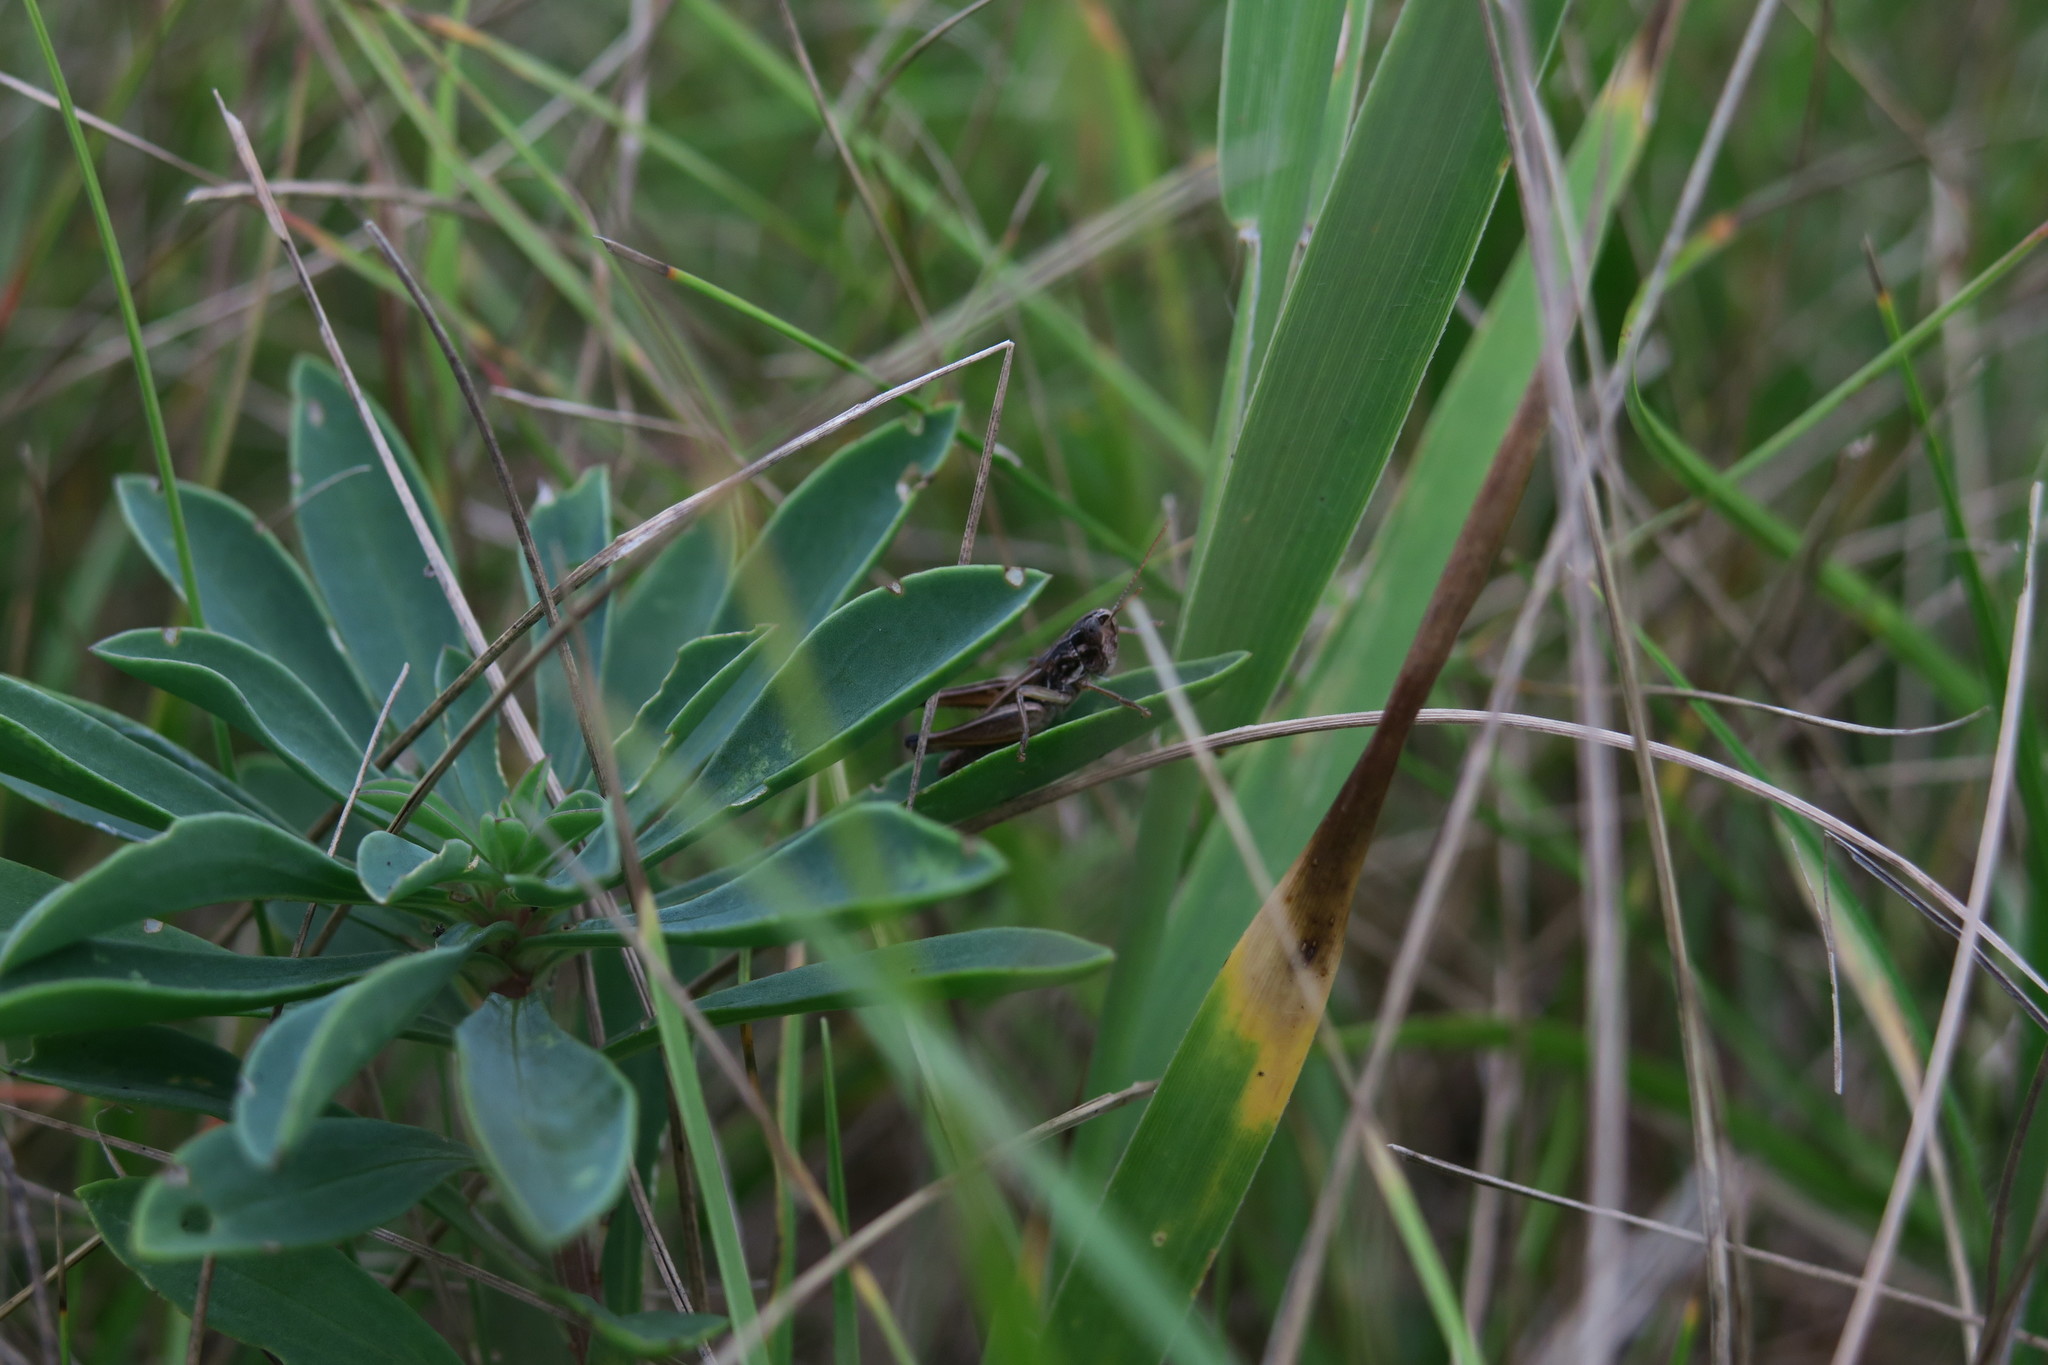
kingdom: Animalia
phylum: Arthropoda
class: Insecta
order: Orthoptera
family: Acrididae
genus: Stenobothrus
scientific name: Stenobothrus crassipes
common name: Pygmy toothed grasshopper
